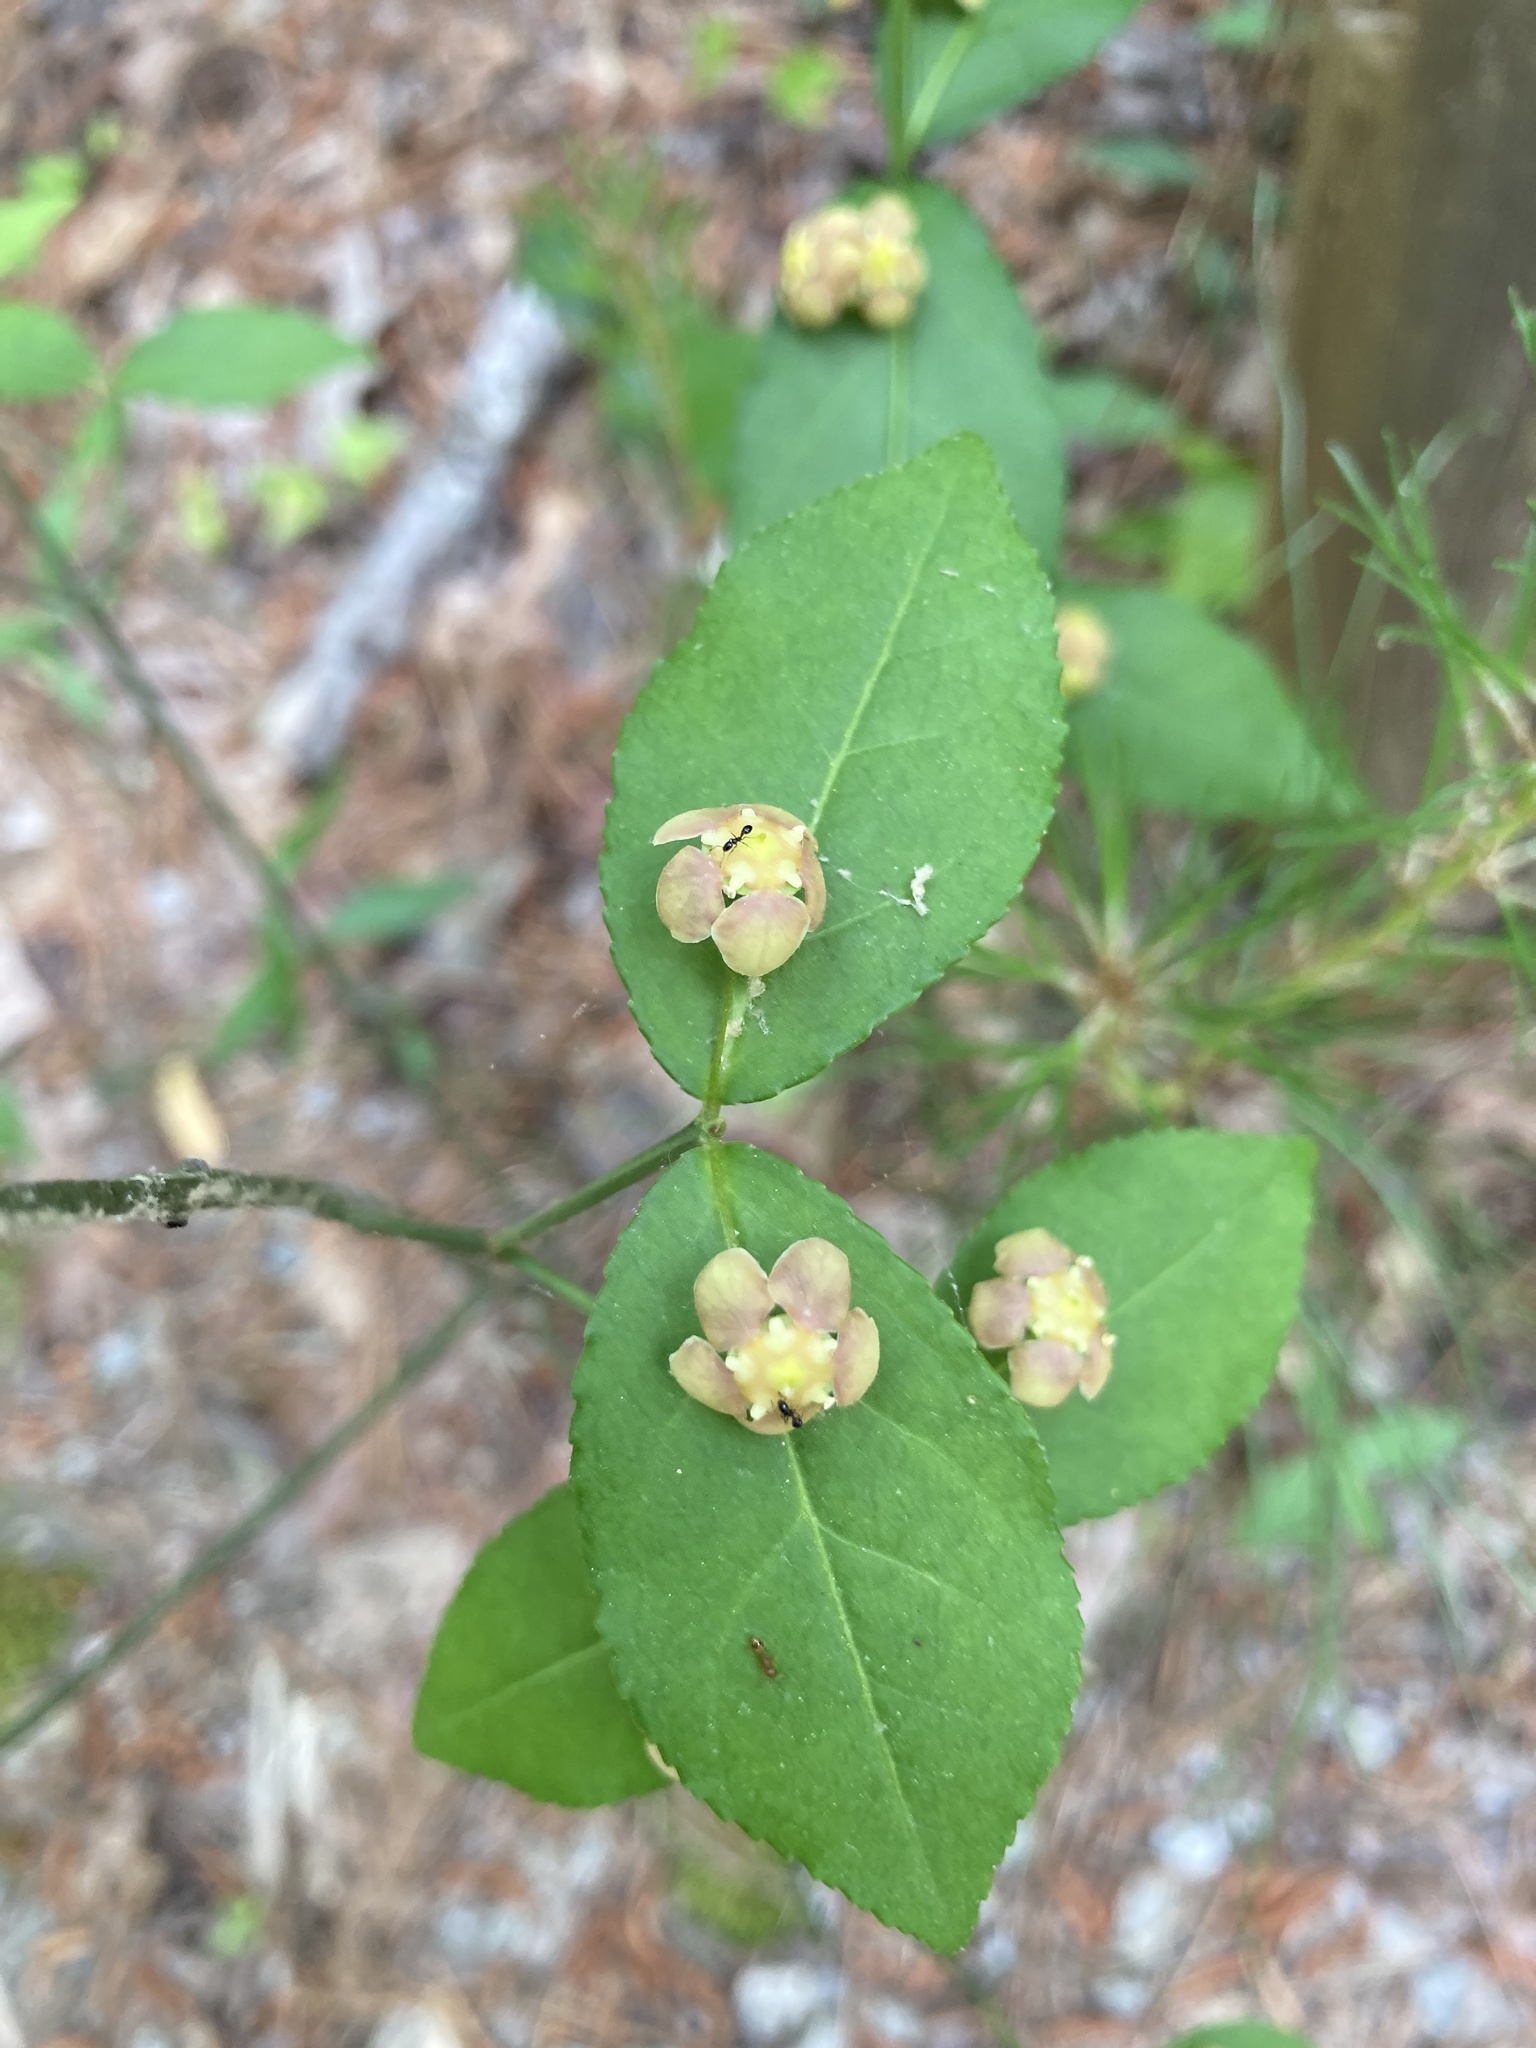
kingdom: Plantae
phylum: Tracheophyta
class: Magnoliopsida
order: Celastrales
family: Celastraceae
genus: Euonymus
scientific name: Euonymus americanus
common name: Bursting-heart
